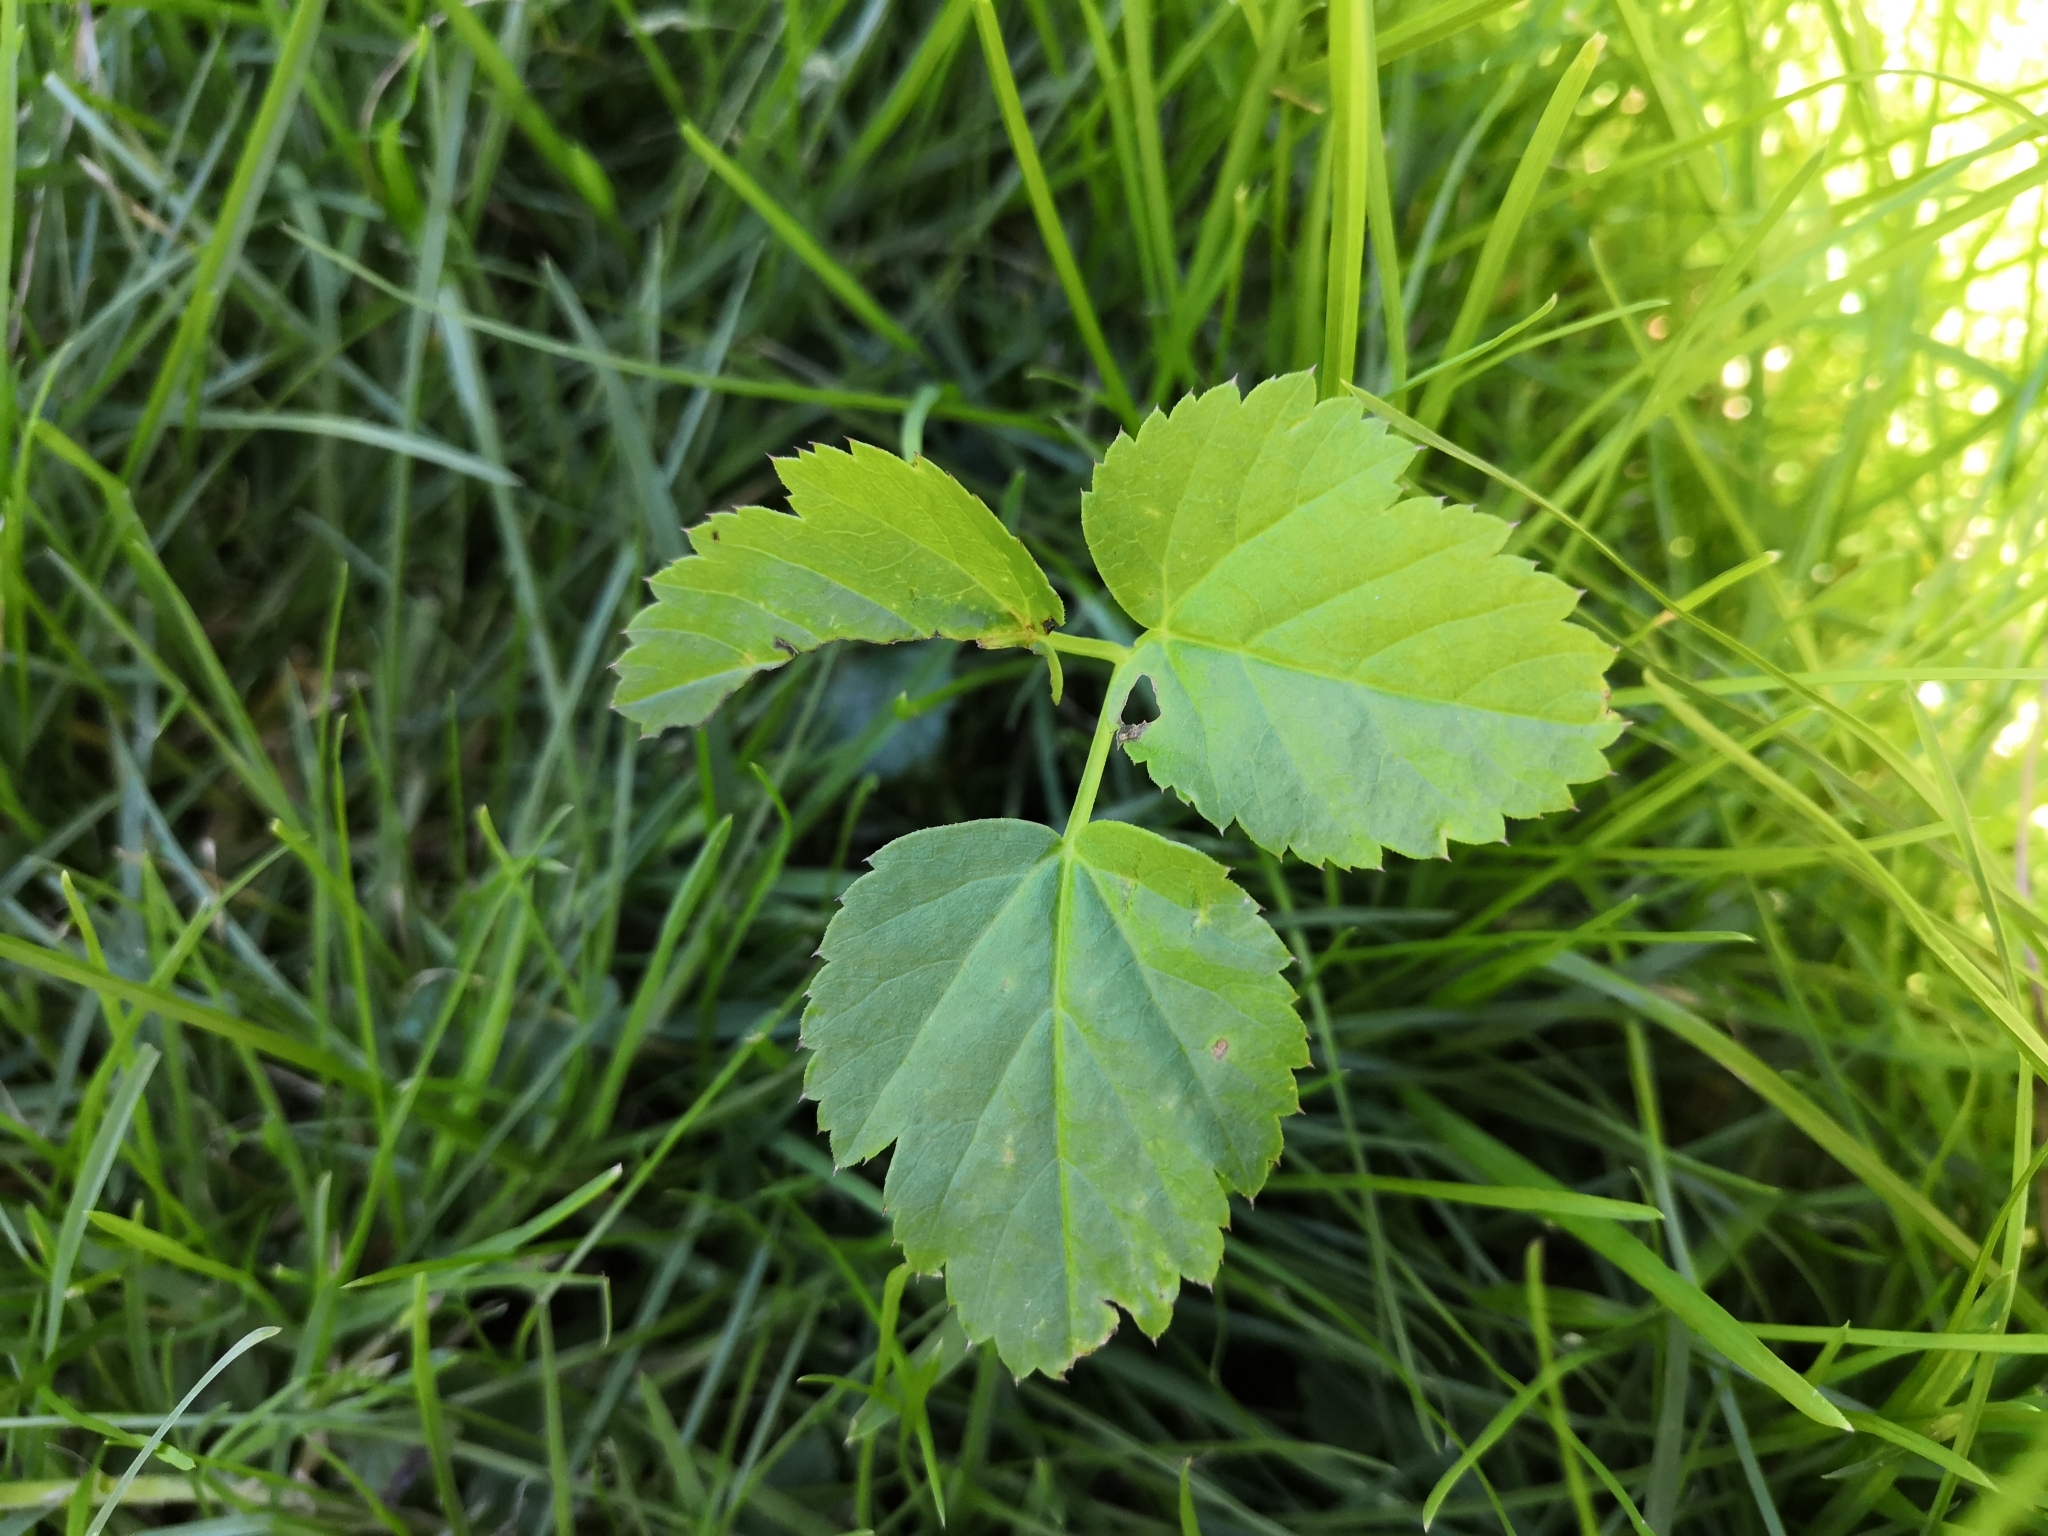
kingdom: Plantae
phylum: Tracheophyta
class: Magnoliopsida
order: Apiales
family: Apiaceae
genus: Aegopodium
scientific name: Aegopodium podagraria
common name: Ground-elder
